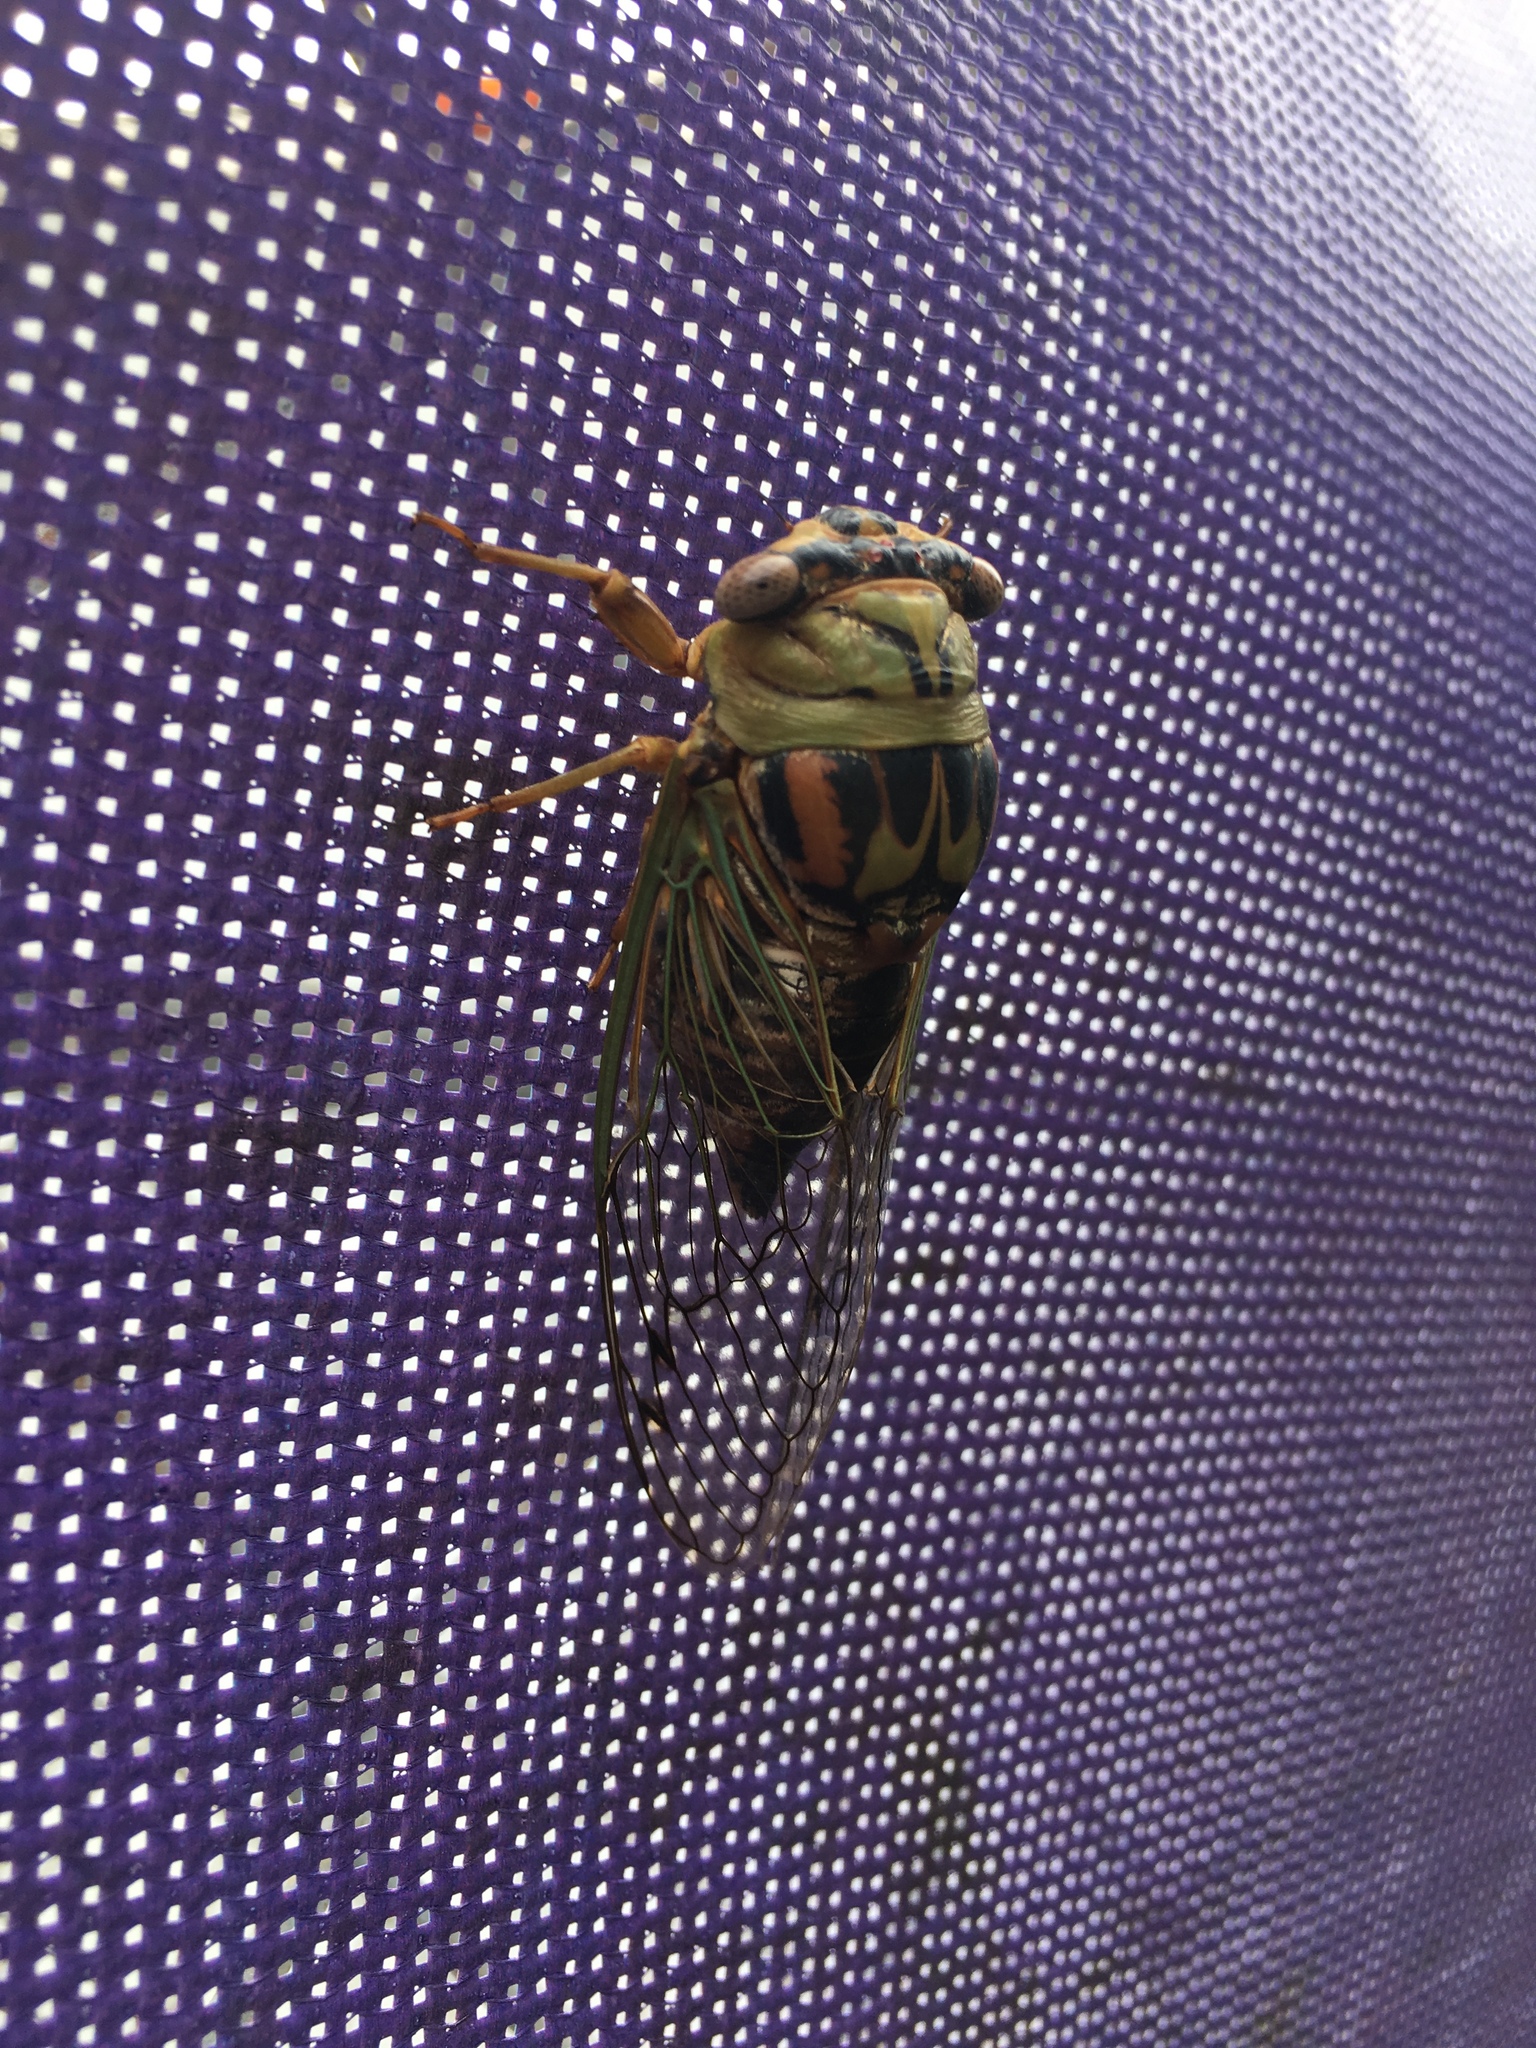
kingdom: Animalia
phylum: Arthropoda
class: Insecta
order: Hemiptera
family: Cicadidae
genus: Megatibicen
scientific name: Megatibicen resh
